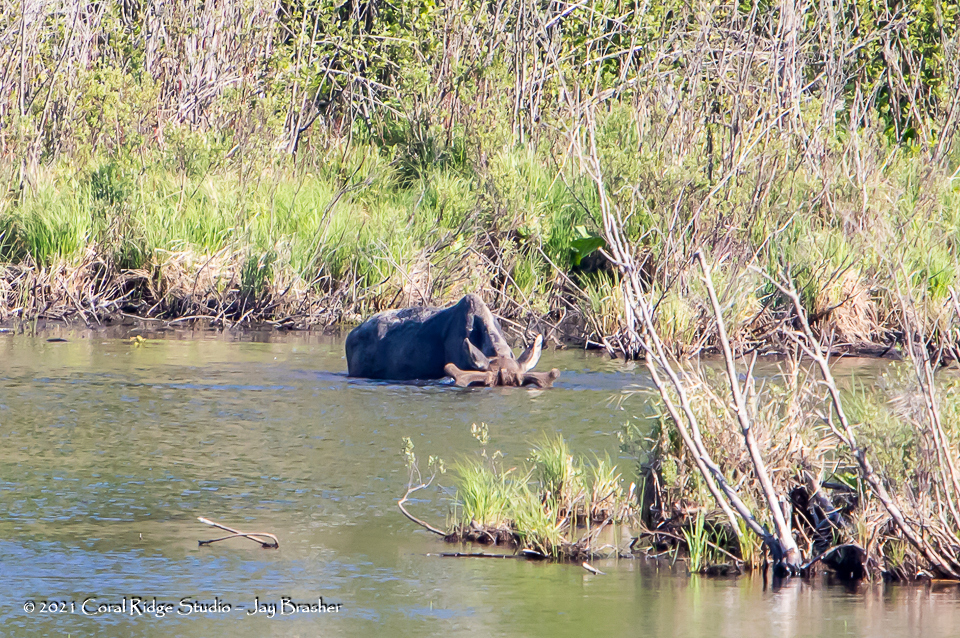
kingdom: Animalia
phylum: Chordata
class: Mammalia
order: Artiodactyla
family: Cervidae
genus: Alces
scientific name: Alces alces
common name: Moose
